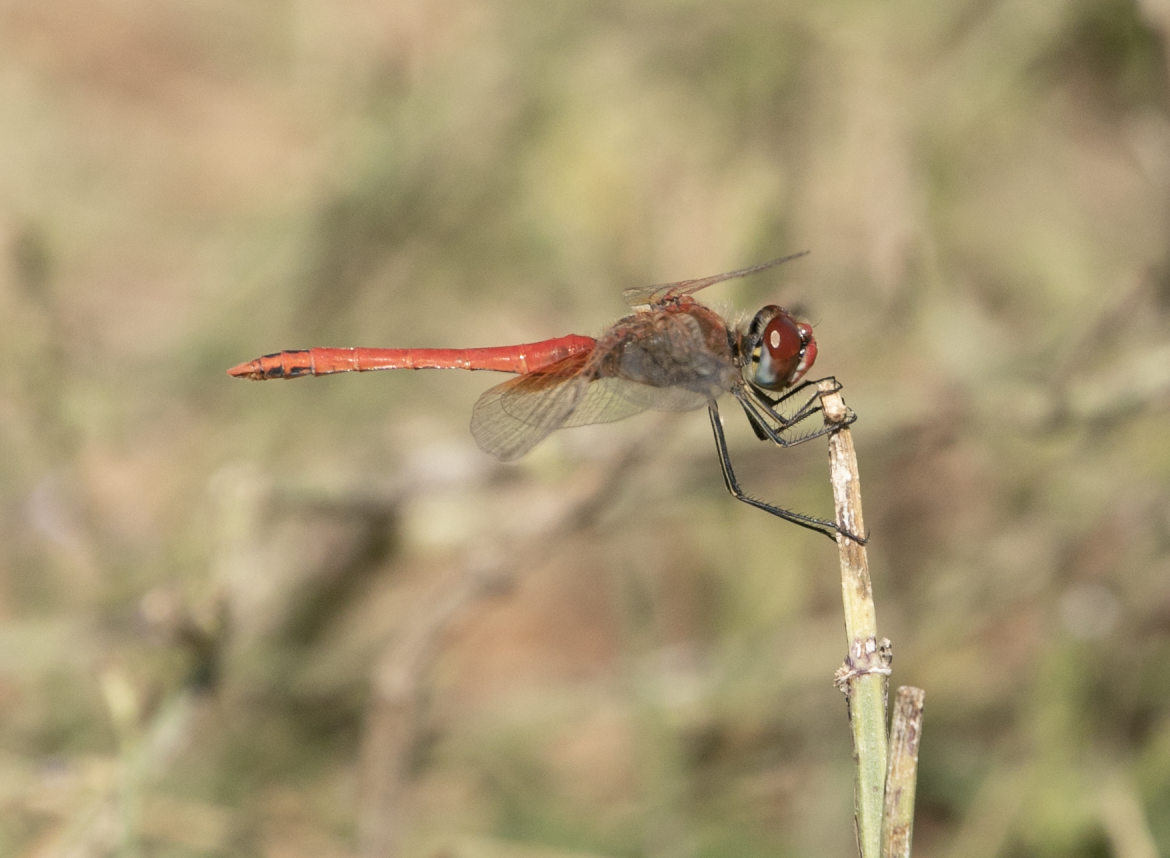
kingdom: Animalia
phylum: Arthropoda
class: Insecta
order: Odonata
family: Libellulidae
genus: Sympetrum
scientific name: Sympetrum fonscolombii
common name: Red-veined darter
